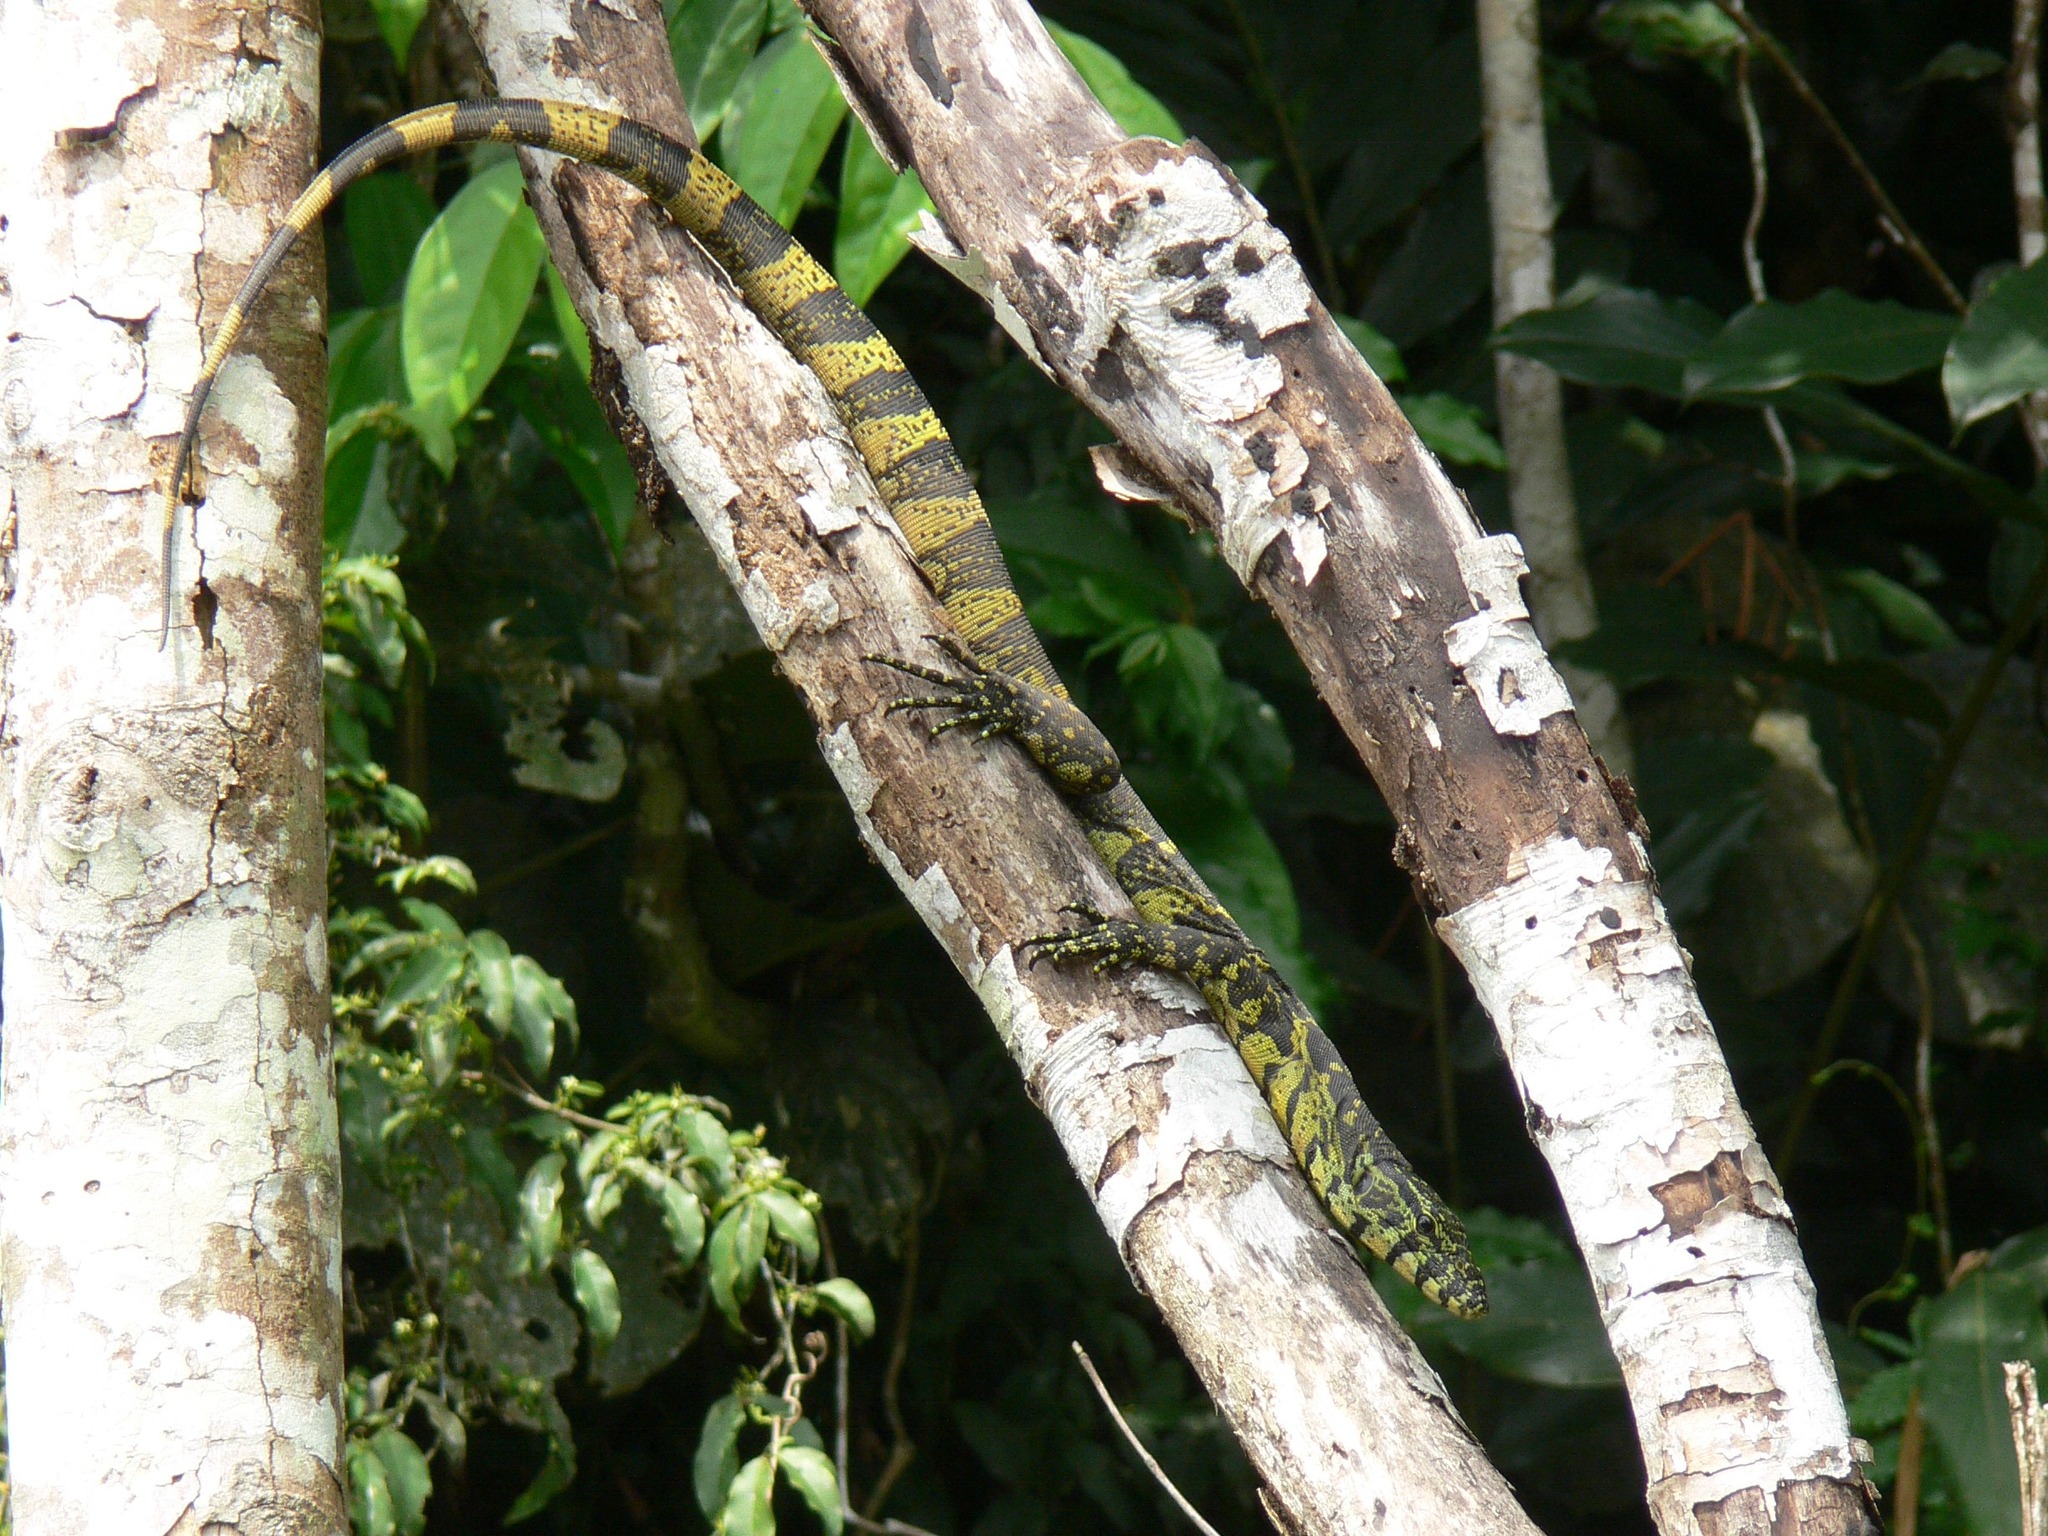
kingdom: Animalia
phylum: Chordata
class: Squamata
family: Varanidae
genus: Varanus
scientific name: Varanus niloticus
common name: Nile monitor
